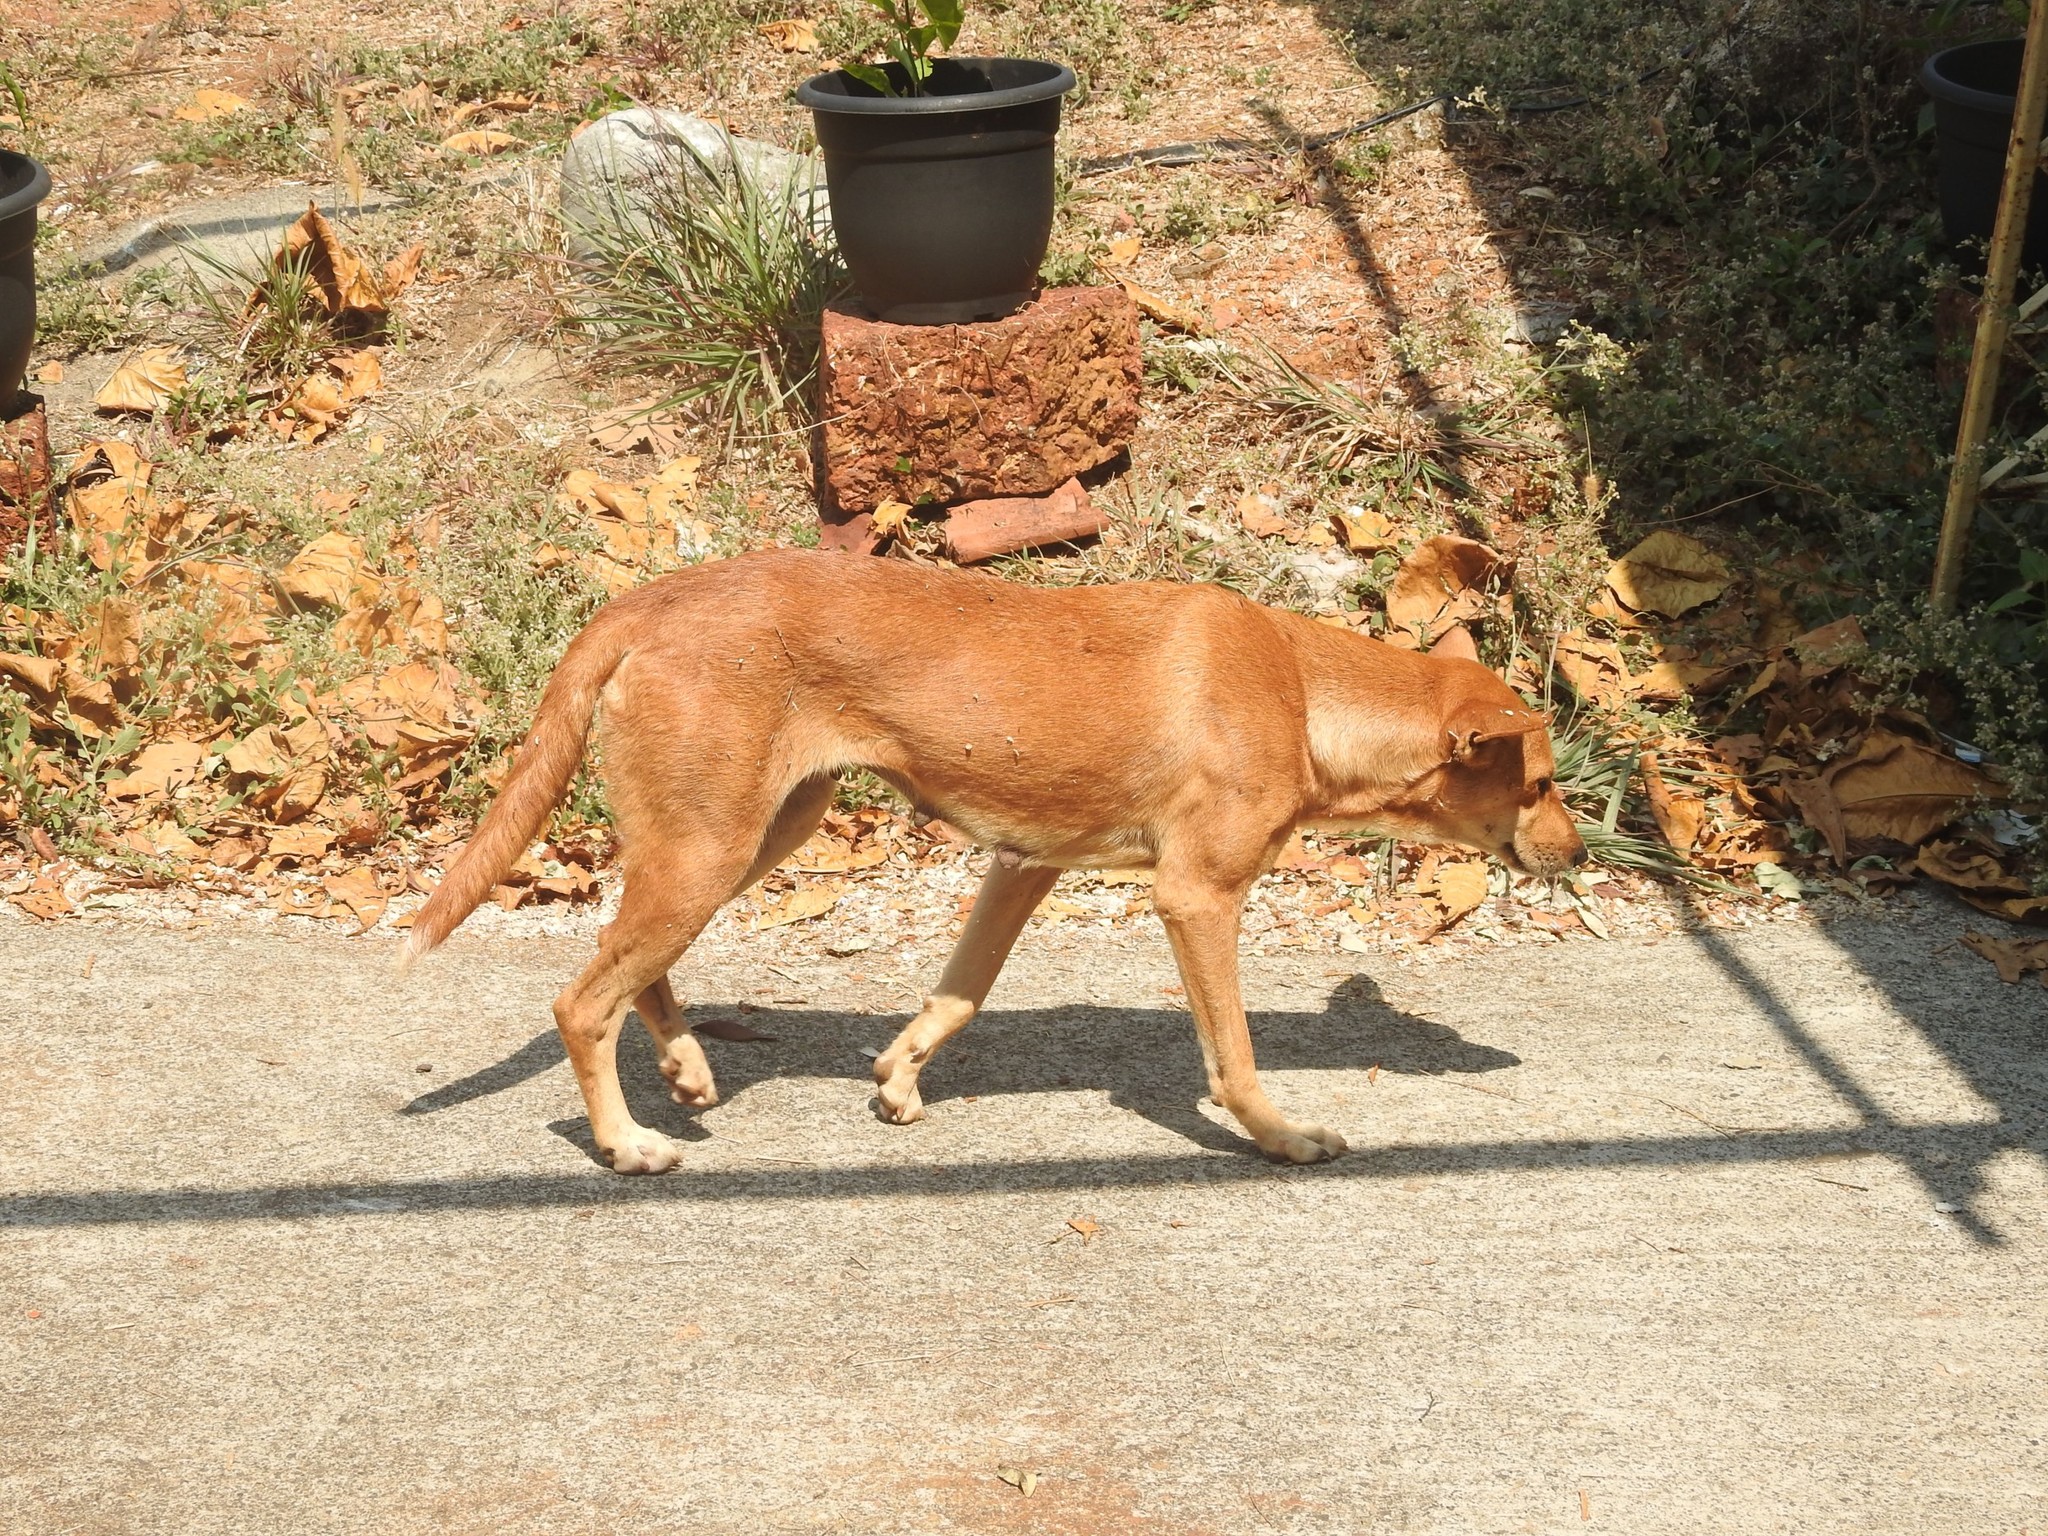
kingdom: Animalia
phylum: Chordata
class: Mammalia
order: Carnivora
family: Canidae
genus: Canis
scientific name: Canis lupus
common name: Gray wolf
